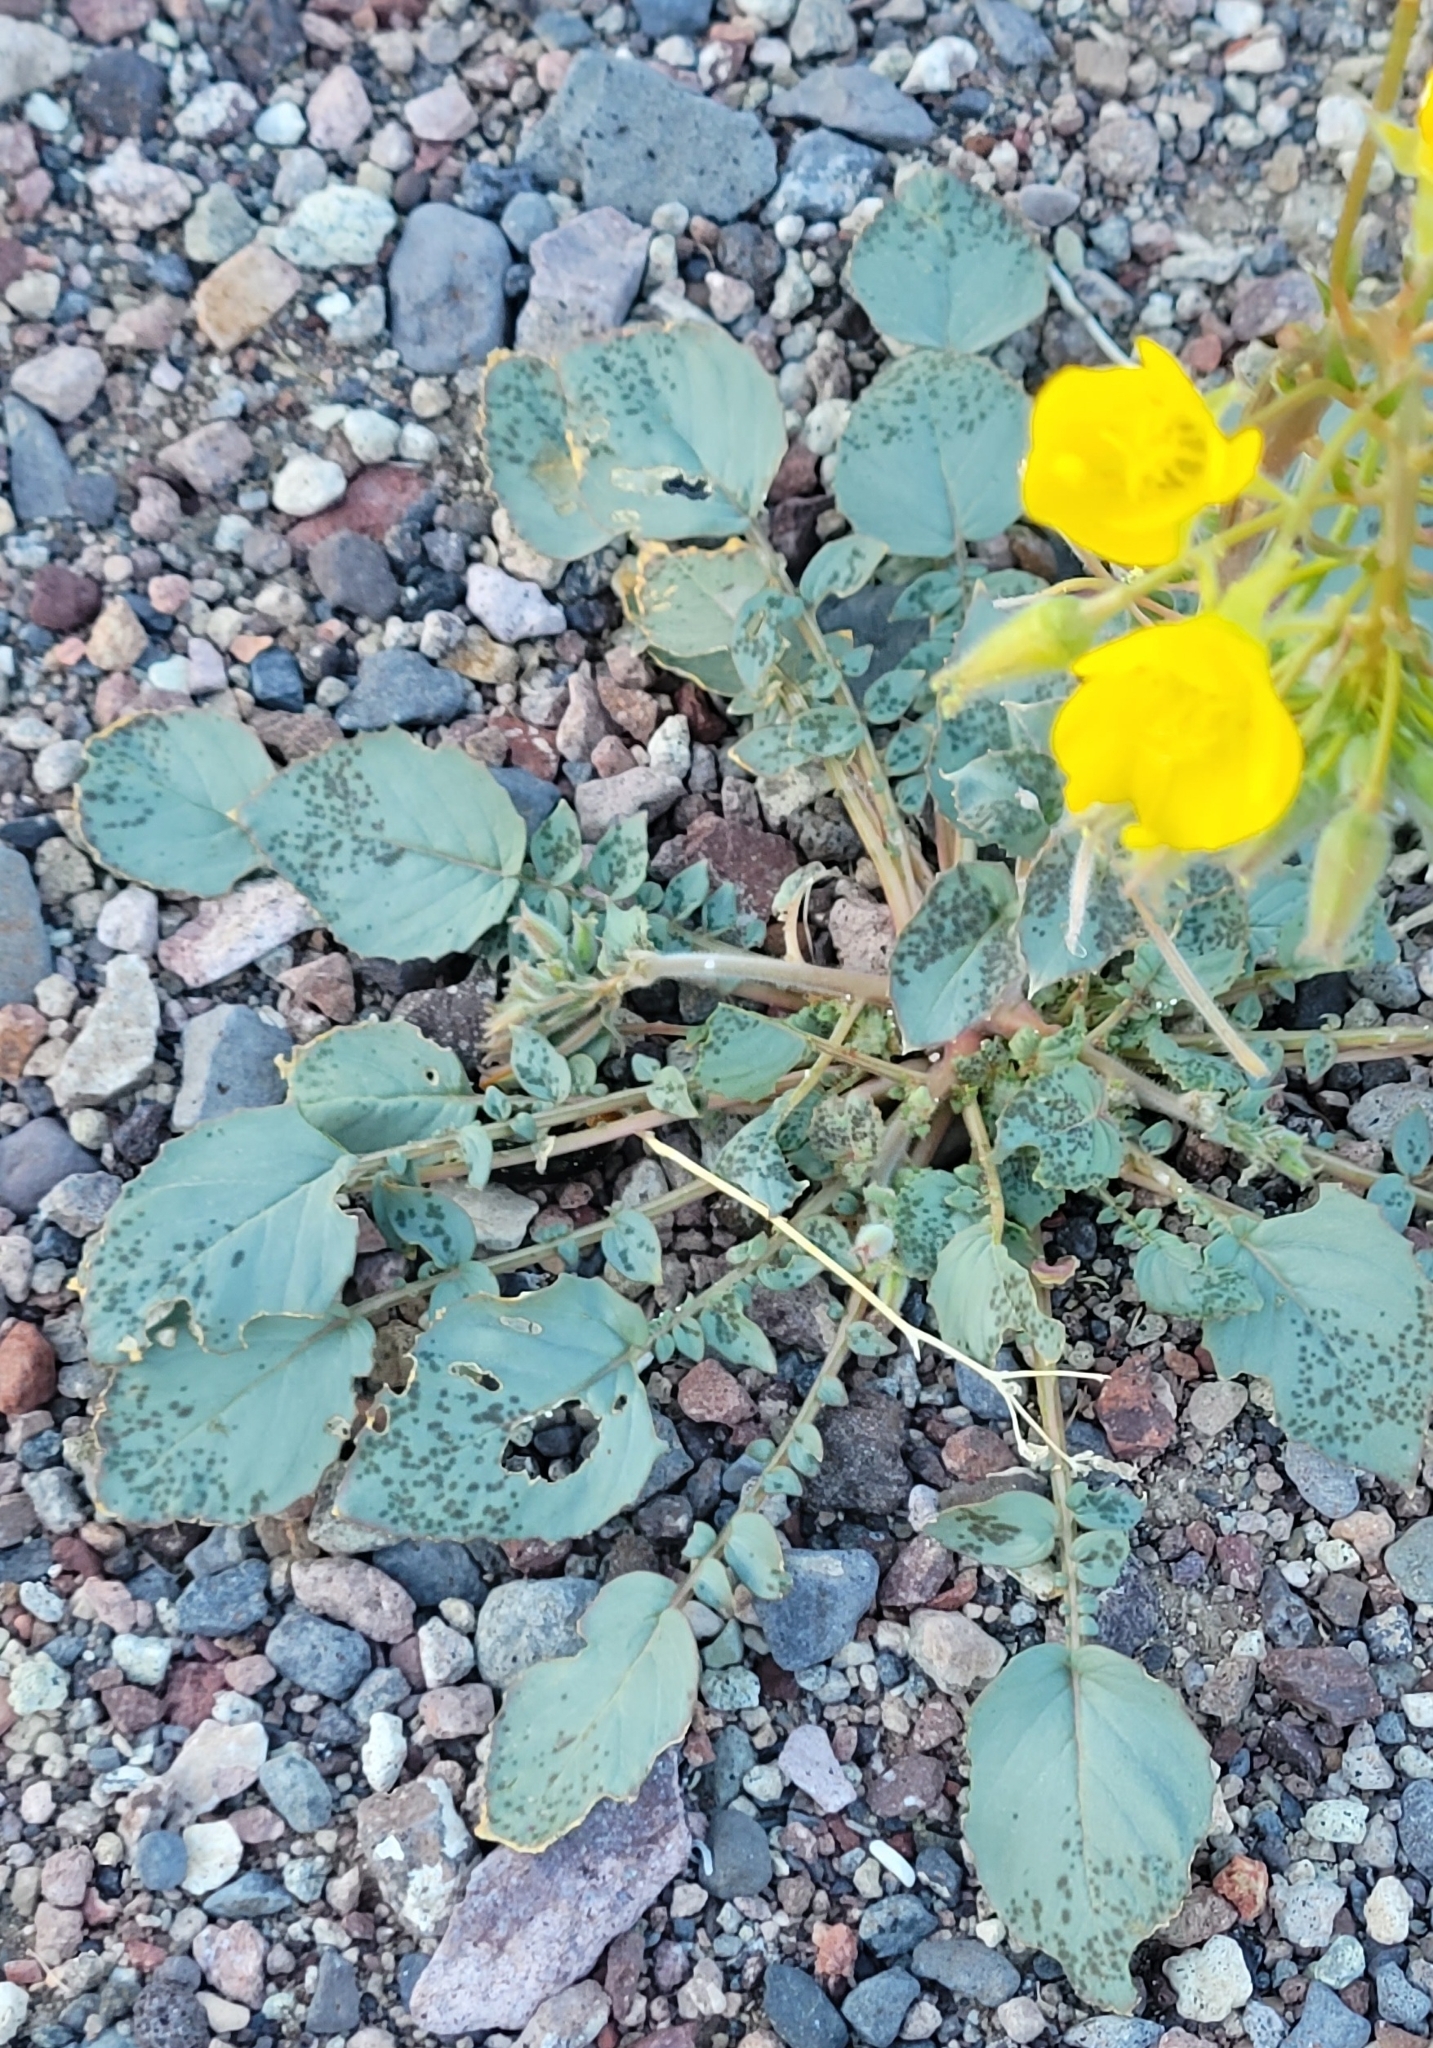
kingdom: Plantae
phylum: Tracheophyta
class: Magnoliopsida
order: Myrtales
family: Onagraceae
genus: Chylismia
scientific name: Chylismia brevipes
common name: Yellow cups
